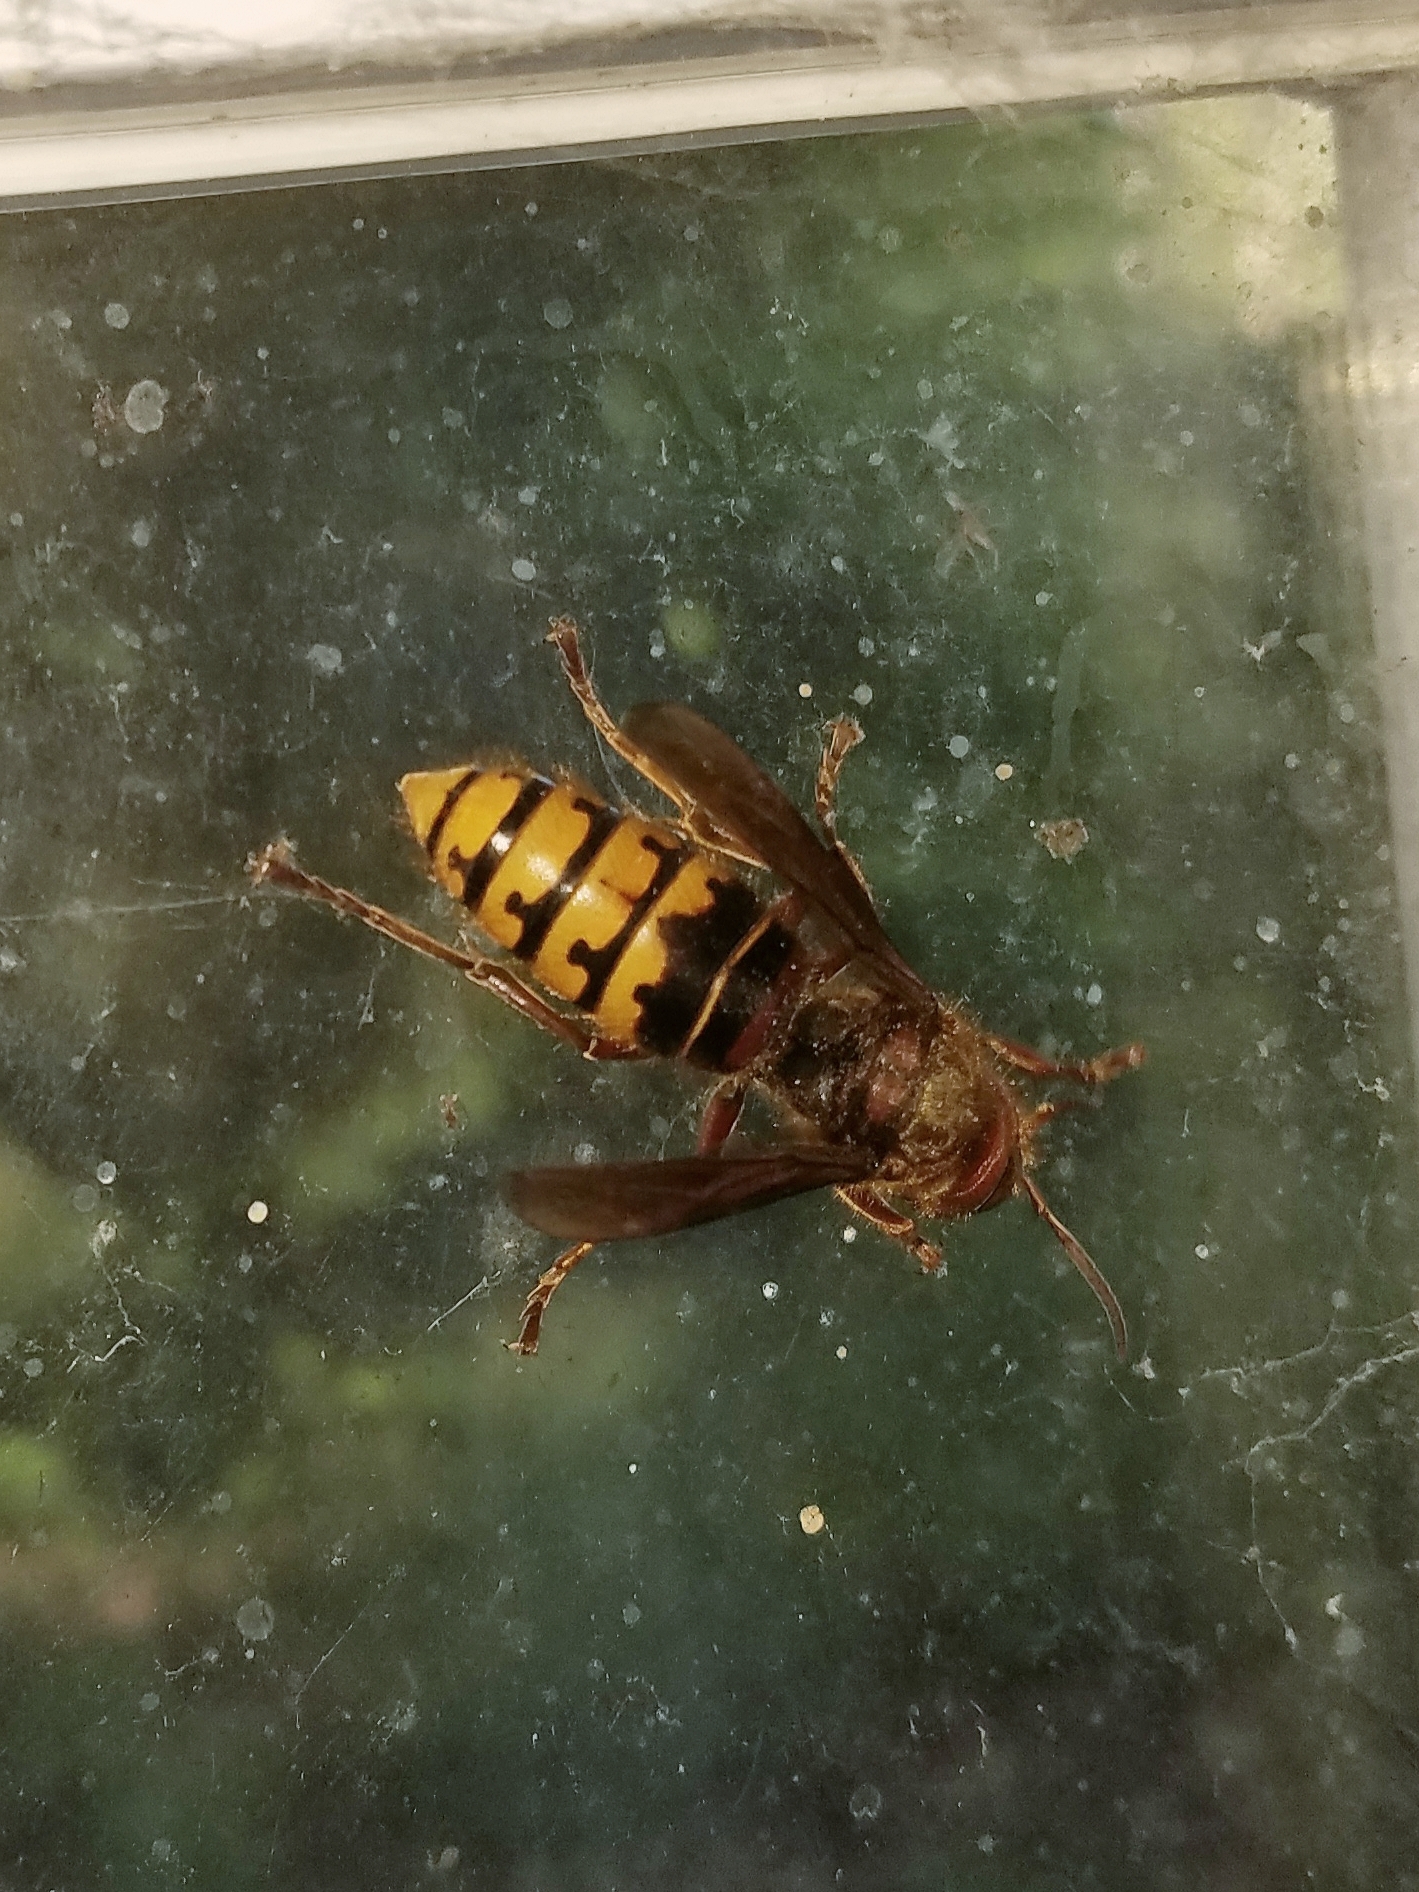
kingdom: Animalia
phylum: Arthropoda
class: Insecta
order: Hymenoptera
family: Vespidae
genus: Vespa
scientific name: Vespa crabro
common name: Hornet
